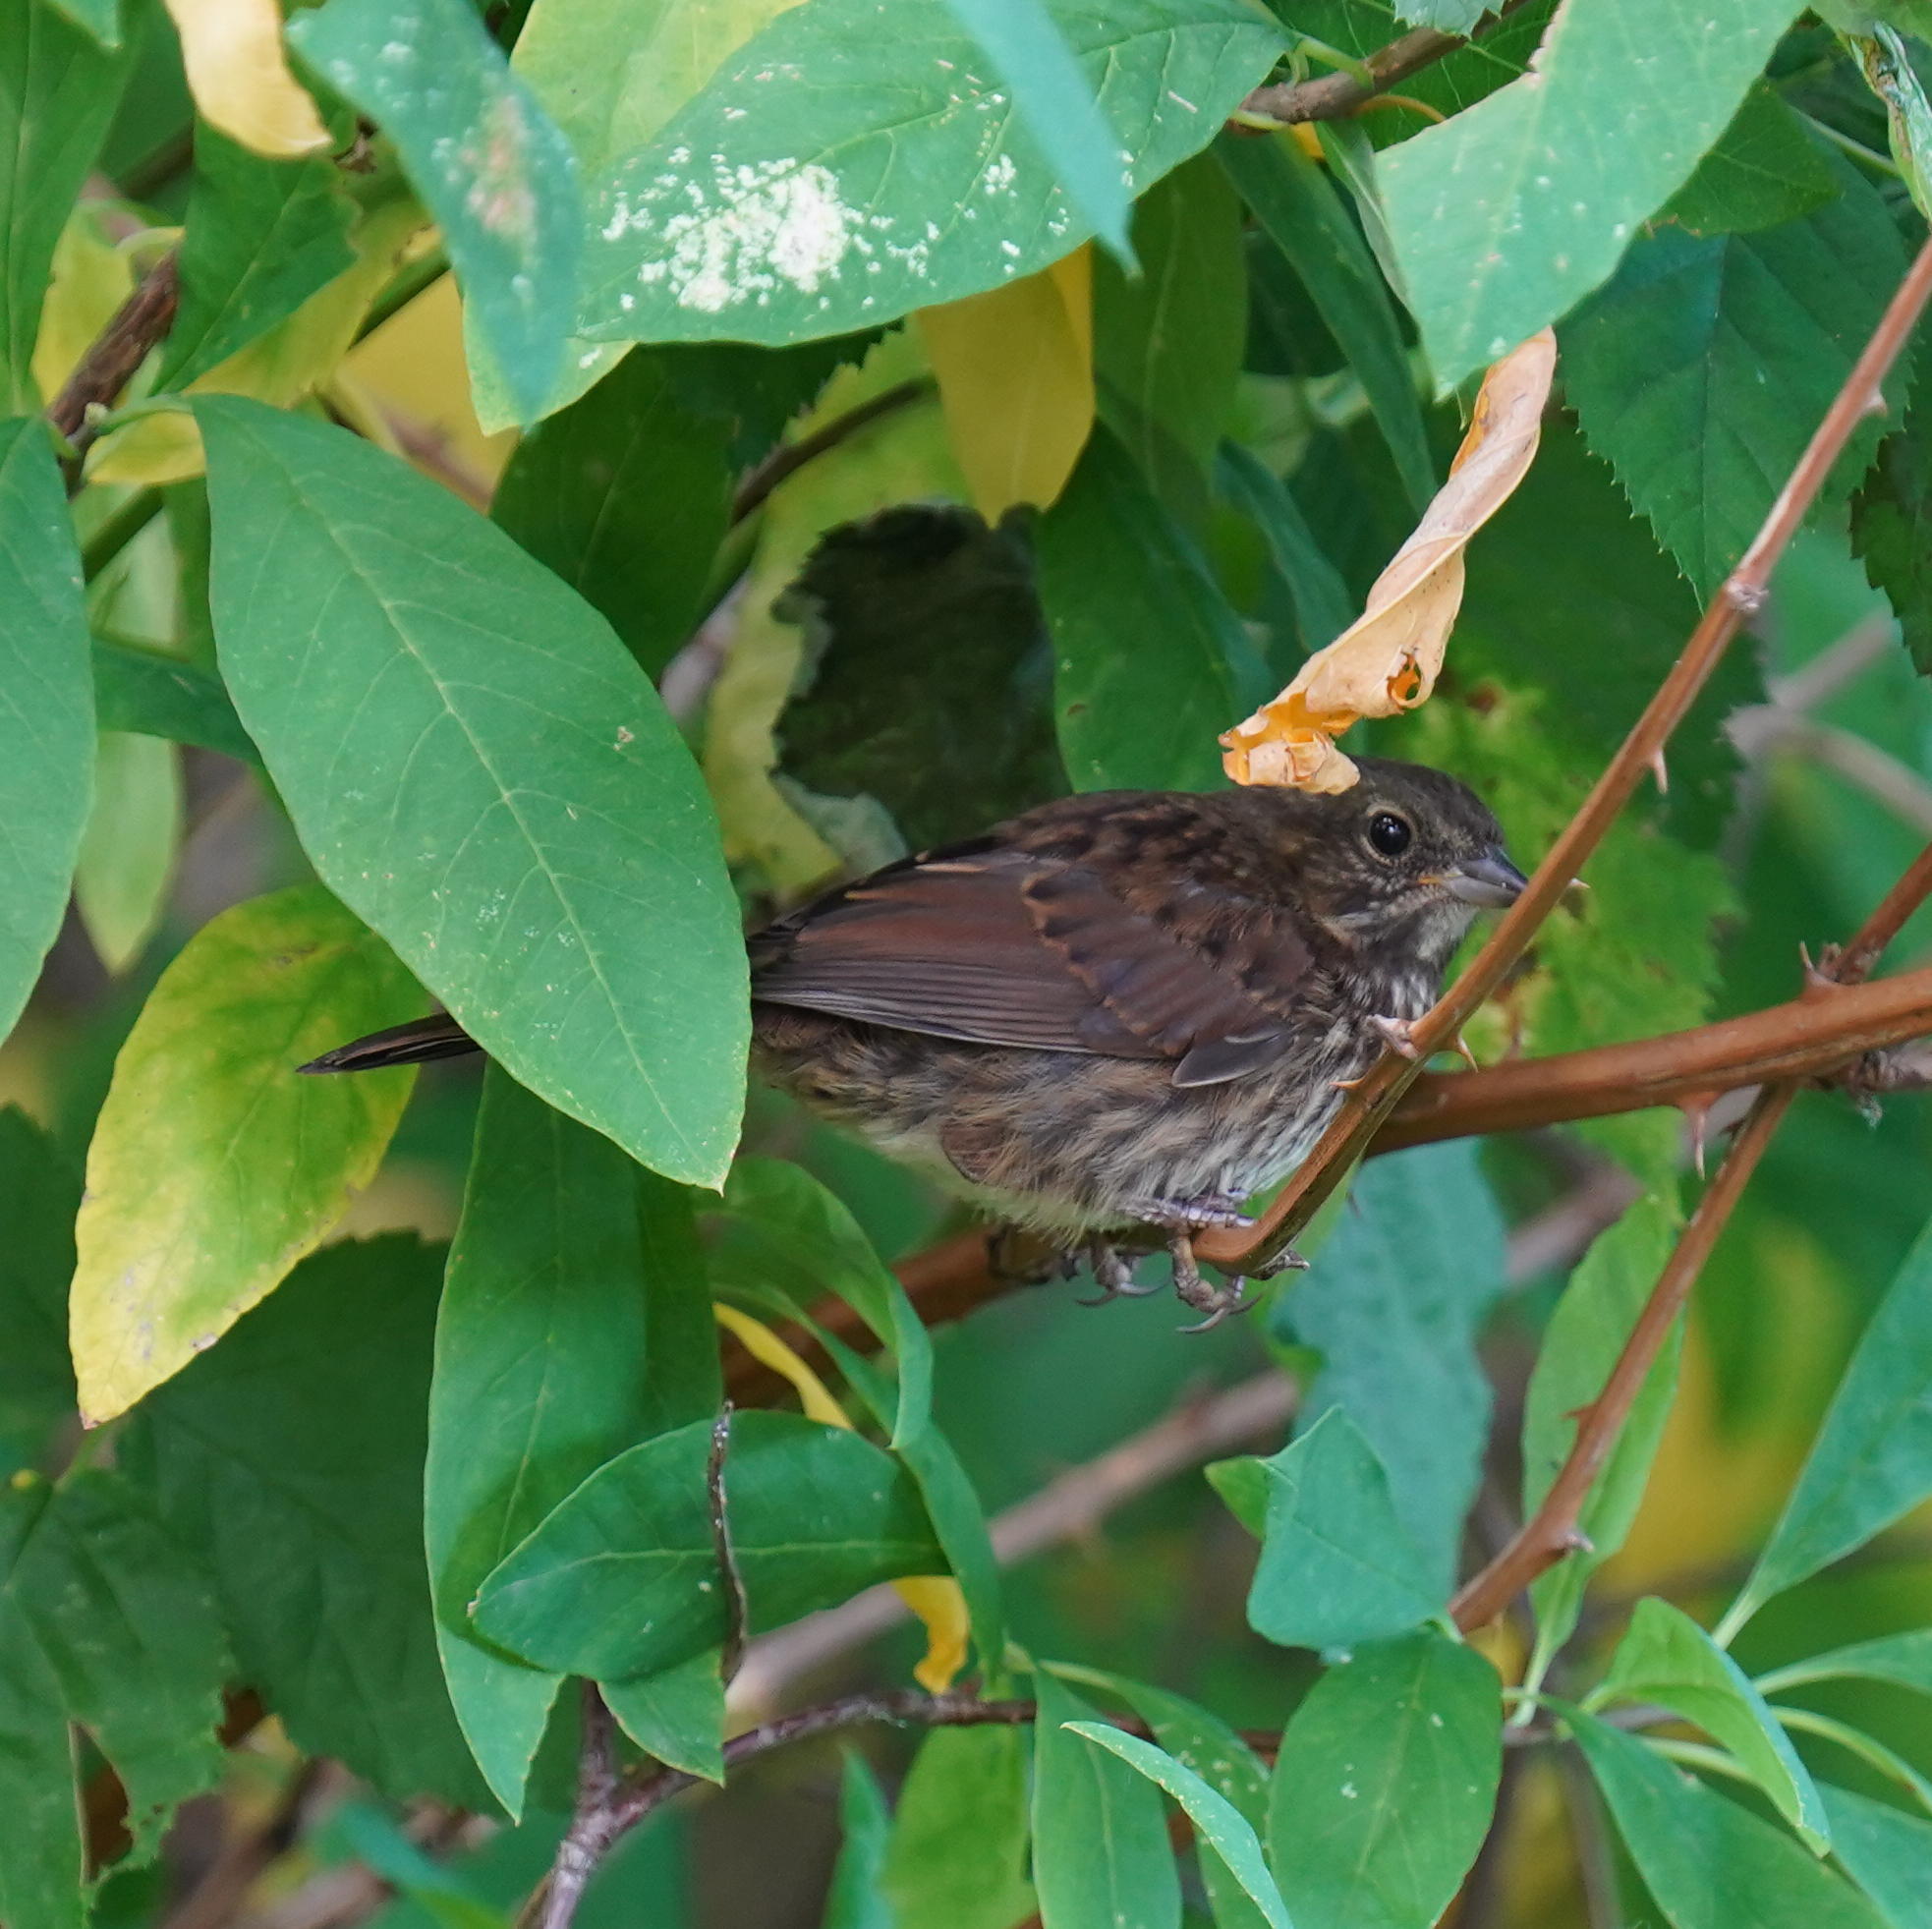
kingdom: Animalia
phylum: Chordata
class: Aves
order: Passeriformes
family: Passerellidae
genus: Melospiza
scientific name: Melospiza melodia
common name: Song sparrow
